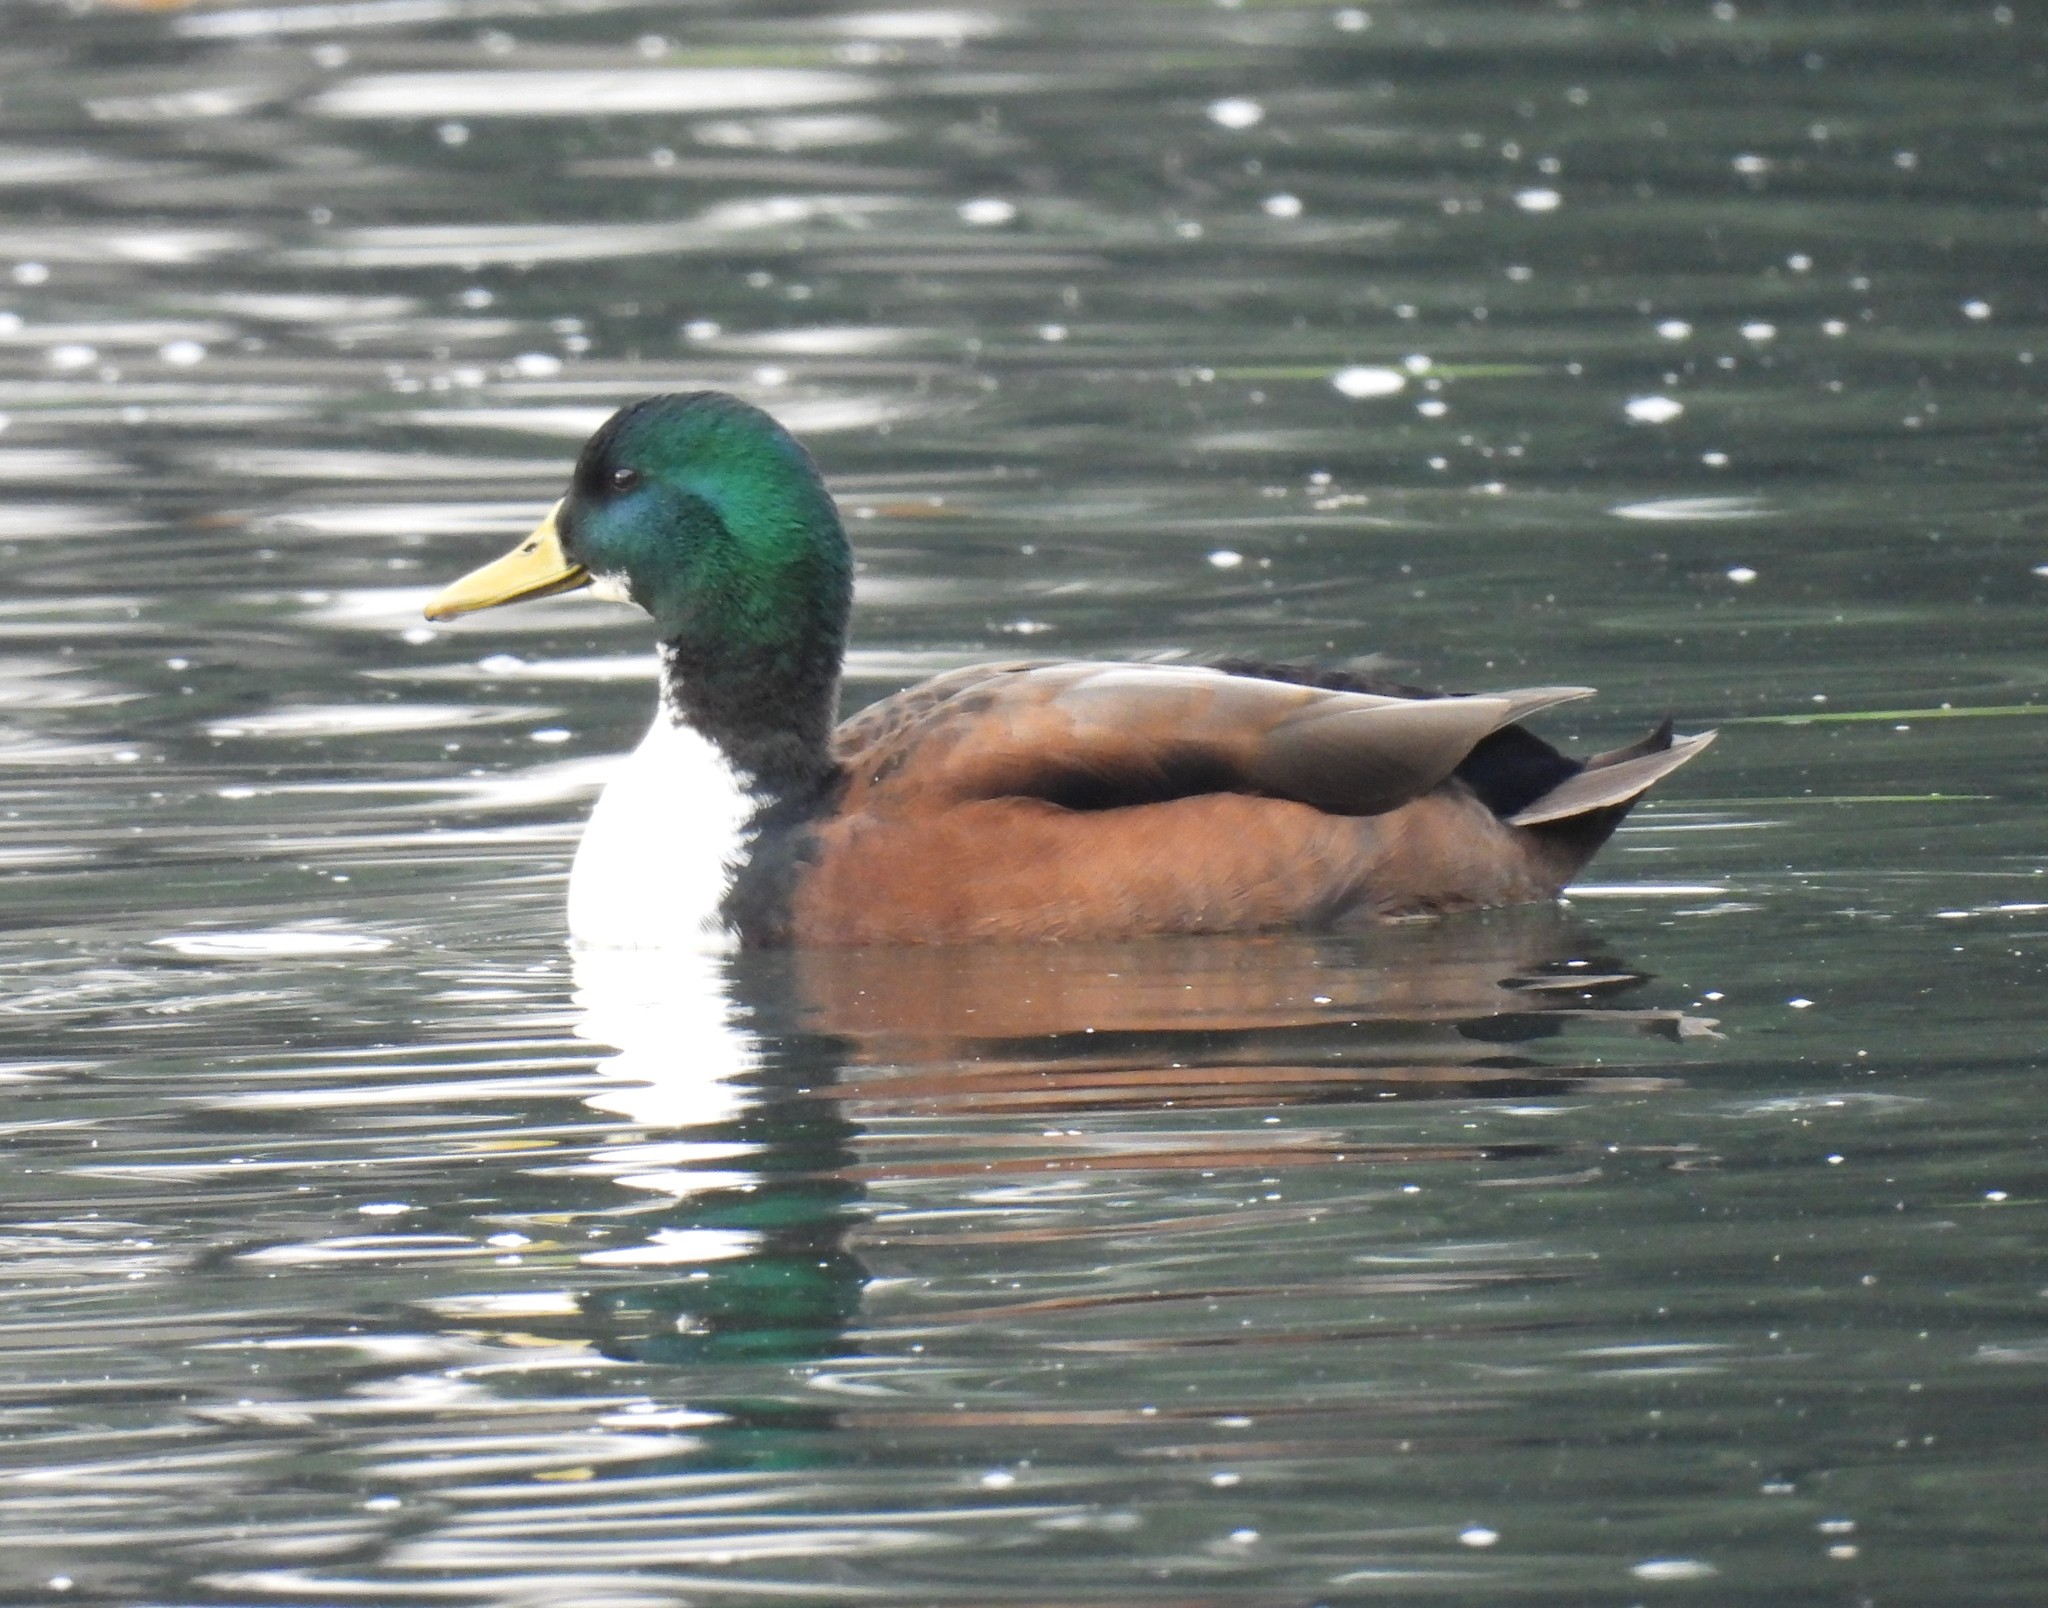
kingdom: Animalia
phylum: Chordata
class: Aves
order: Anseriformes
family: Anatidae
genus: Anas
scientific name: Anas platyrhynchos
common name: Mallard
